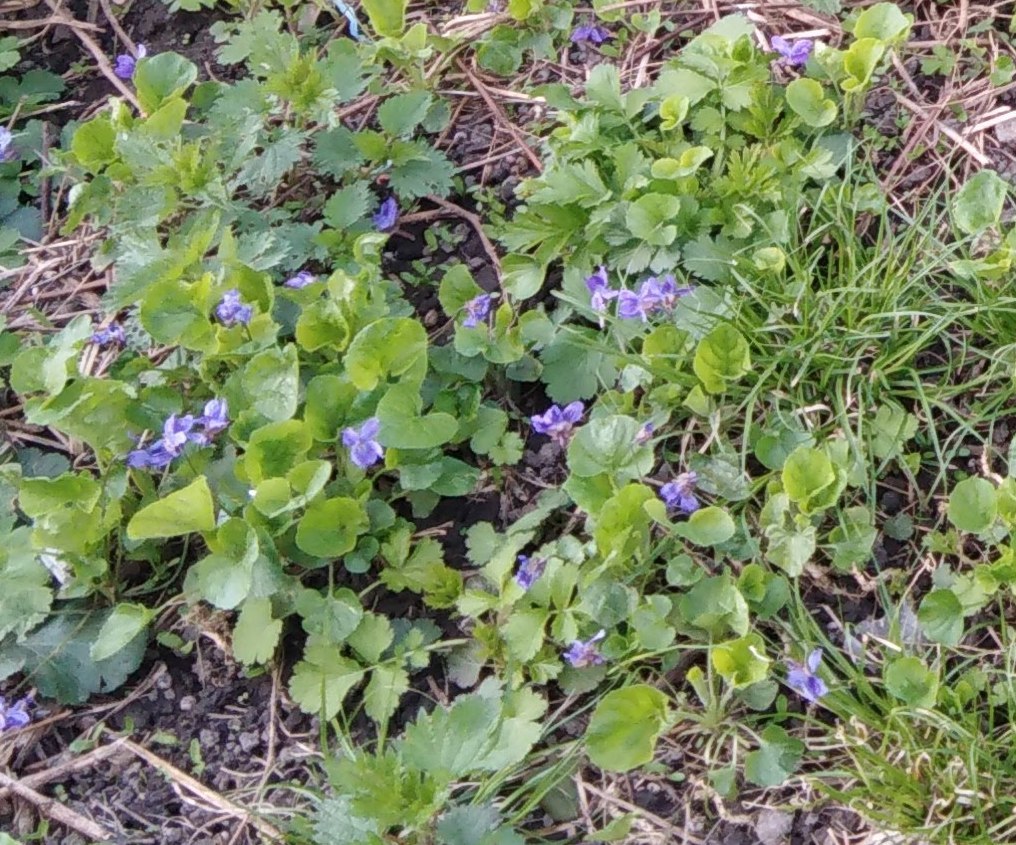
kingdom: Plantae
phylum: Tracheophyta
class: Magnoliopsida
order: Malpighiales
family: Violaceae
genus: Viola
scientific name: Viola odorata
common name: Sweet violet
